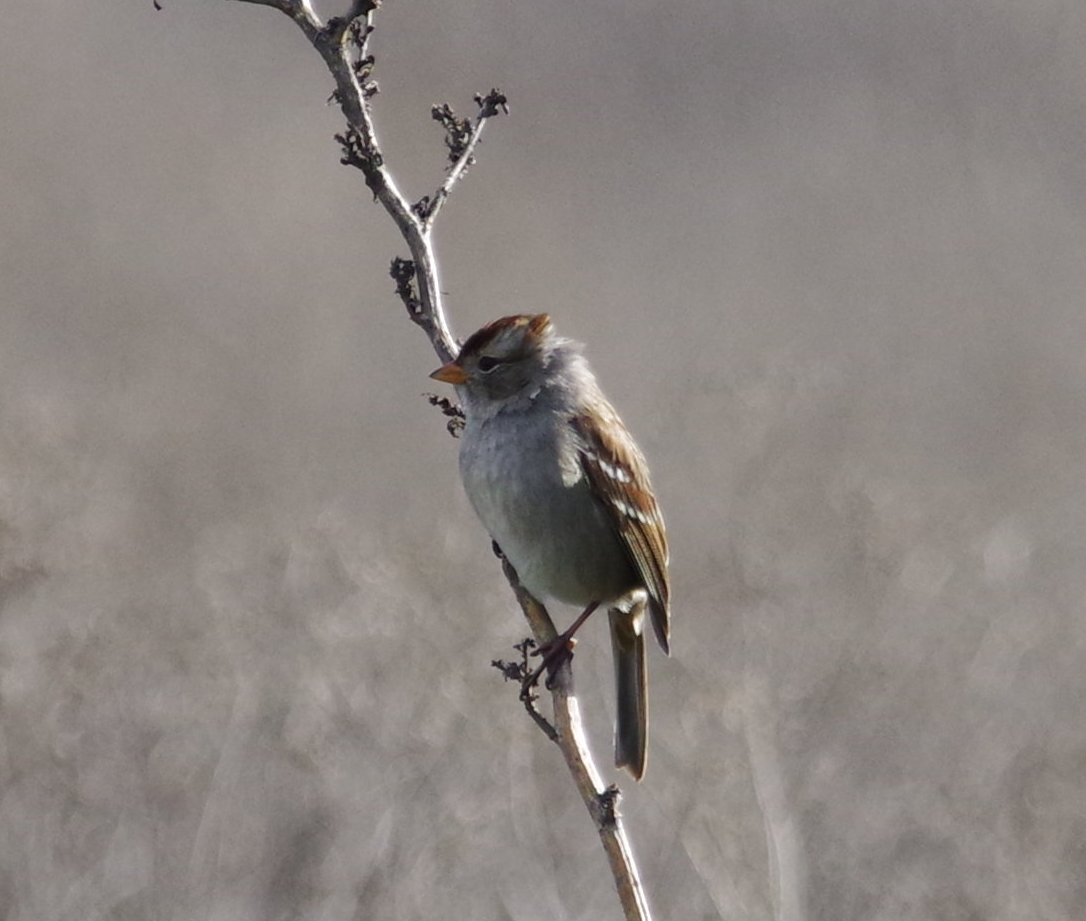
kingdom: Animalia
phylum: Chordata
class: Aves
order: Passeriformes
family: Passerellidae
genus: Zonotrichia
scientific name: Zonotrichia leucophrys
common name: White-crowned sparrow
